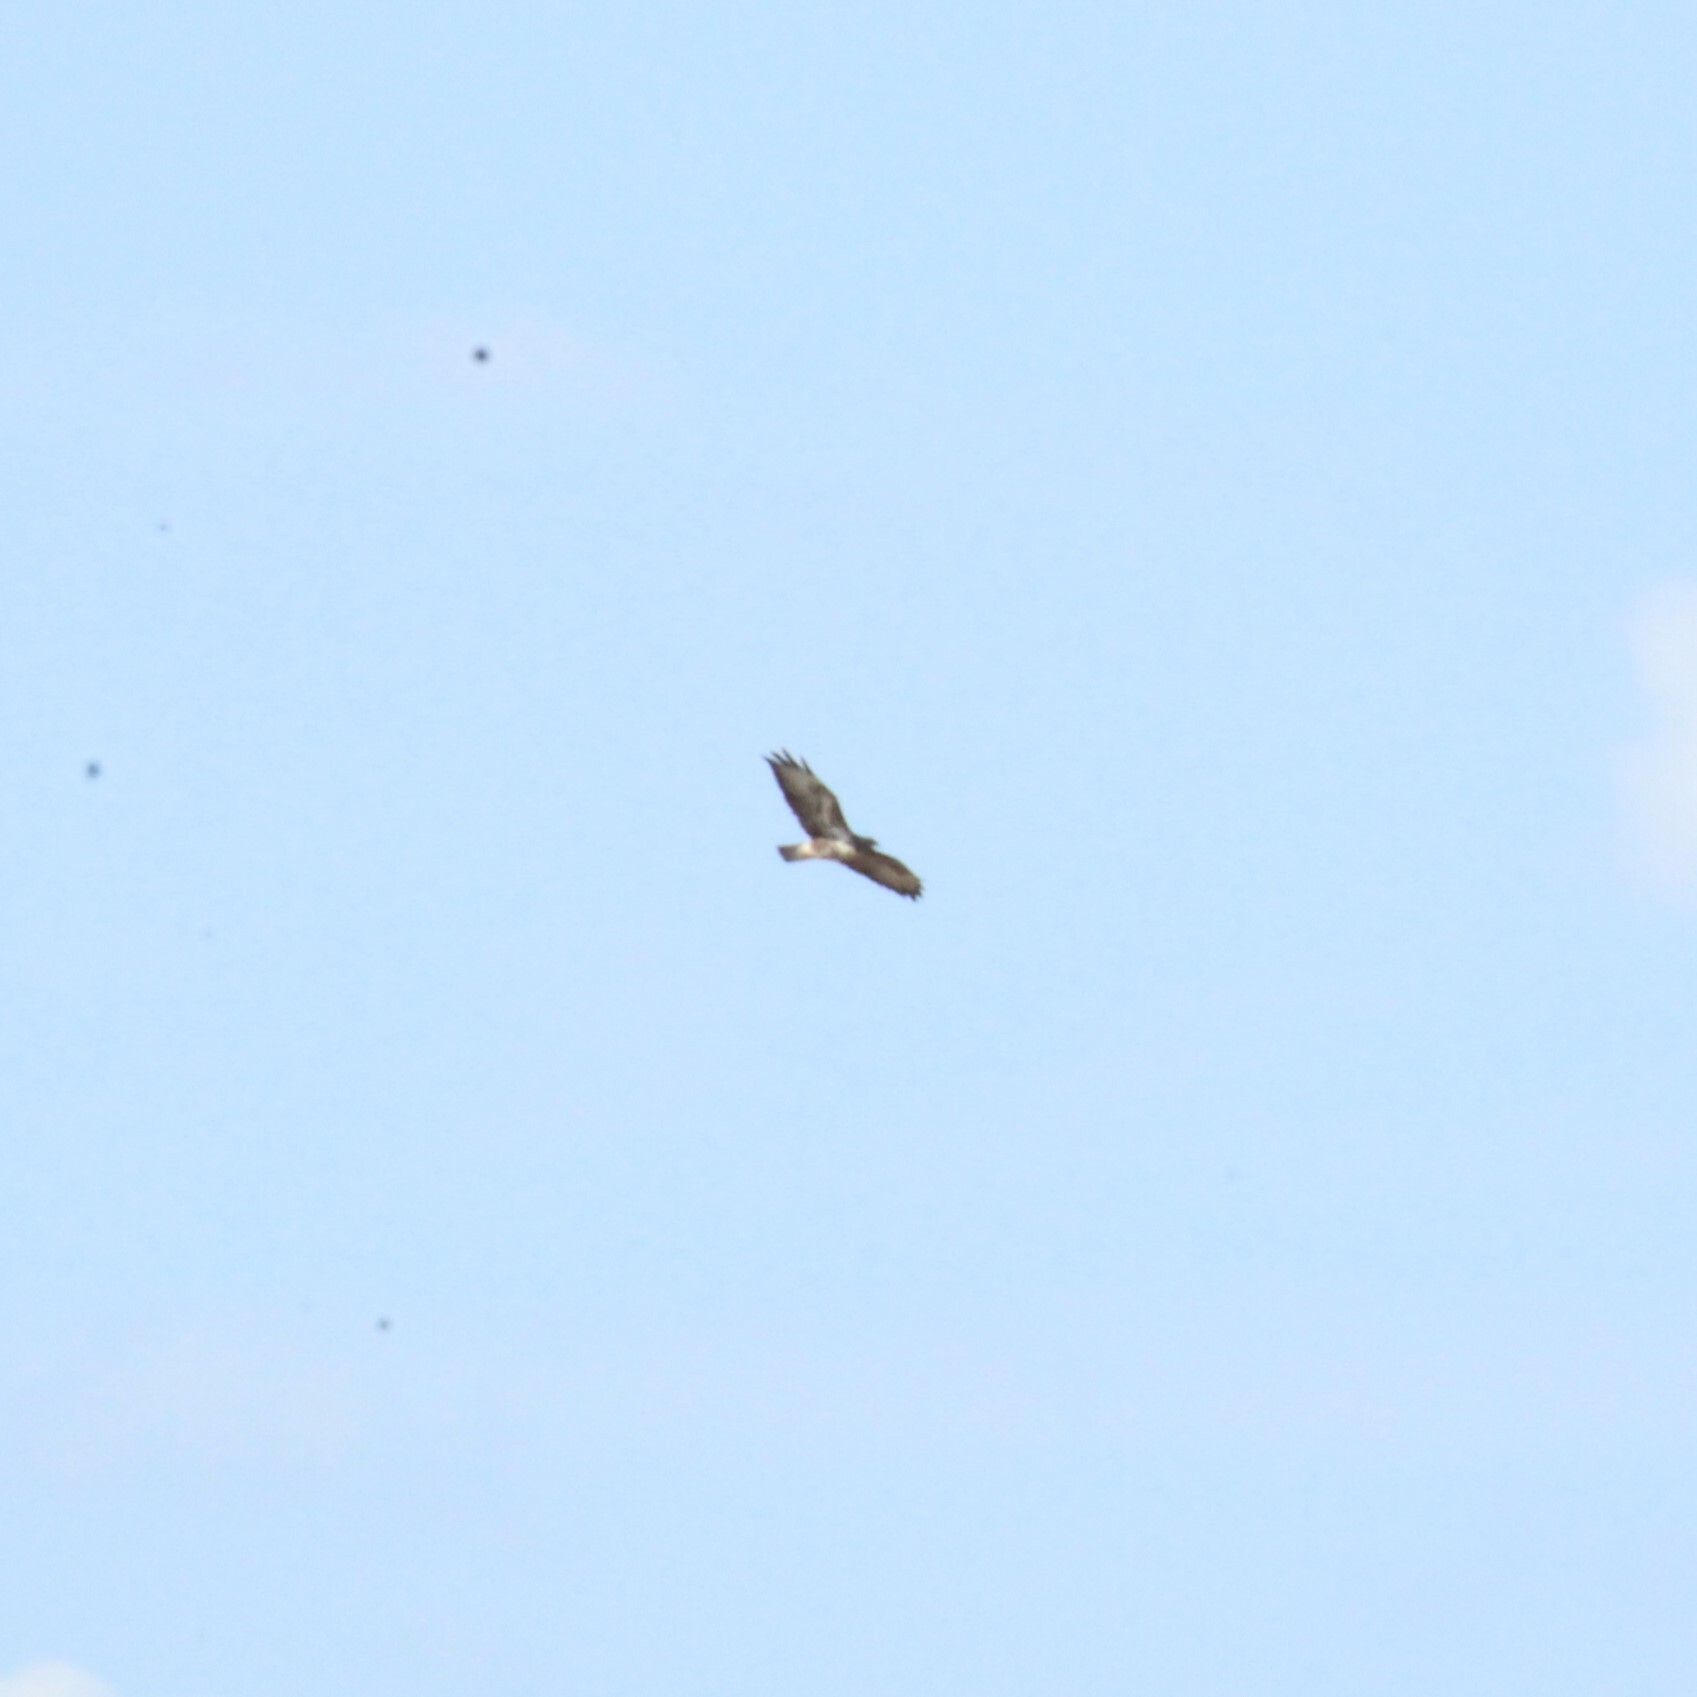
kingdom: Animalia
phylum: Chordata
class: Aves
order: Accipitriformes
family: Accipitridae
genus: Buteo
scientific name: Buteo buteo
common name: Common buzzard
